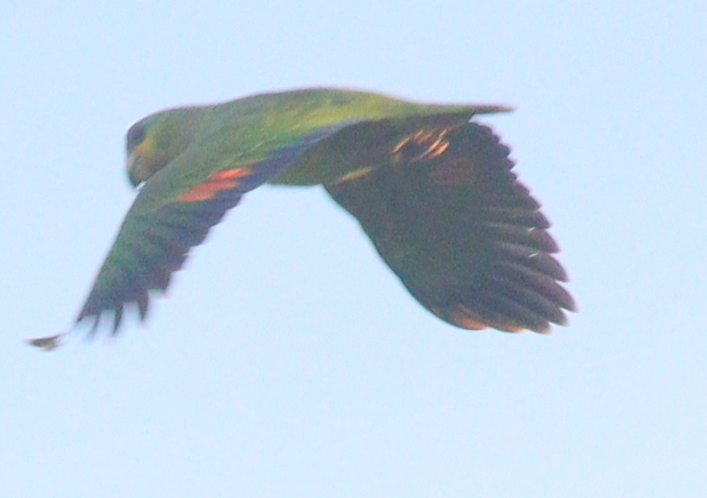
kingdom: Animalia
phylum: Chordata
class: Aves
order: Psittaciformes
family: Psittacidae
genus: Amazona
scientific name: Amazona amazonica
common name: Orange-winged amazon
